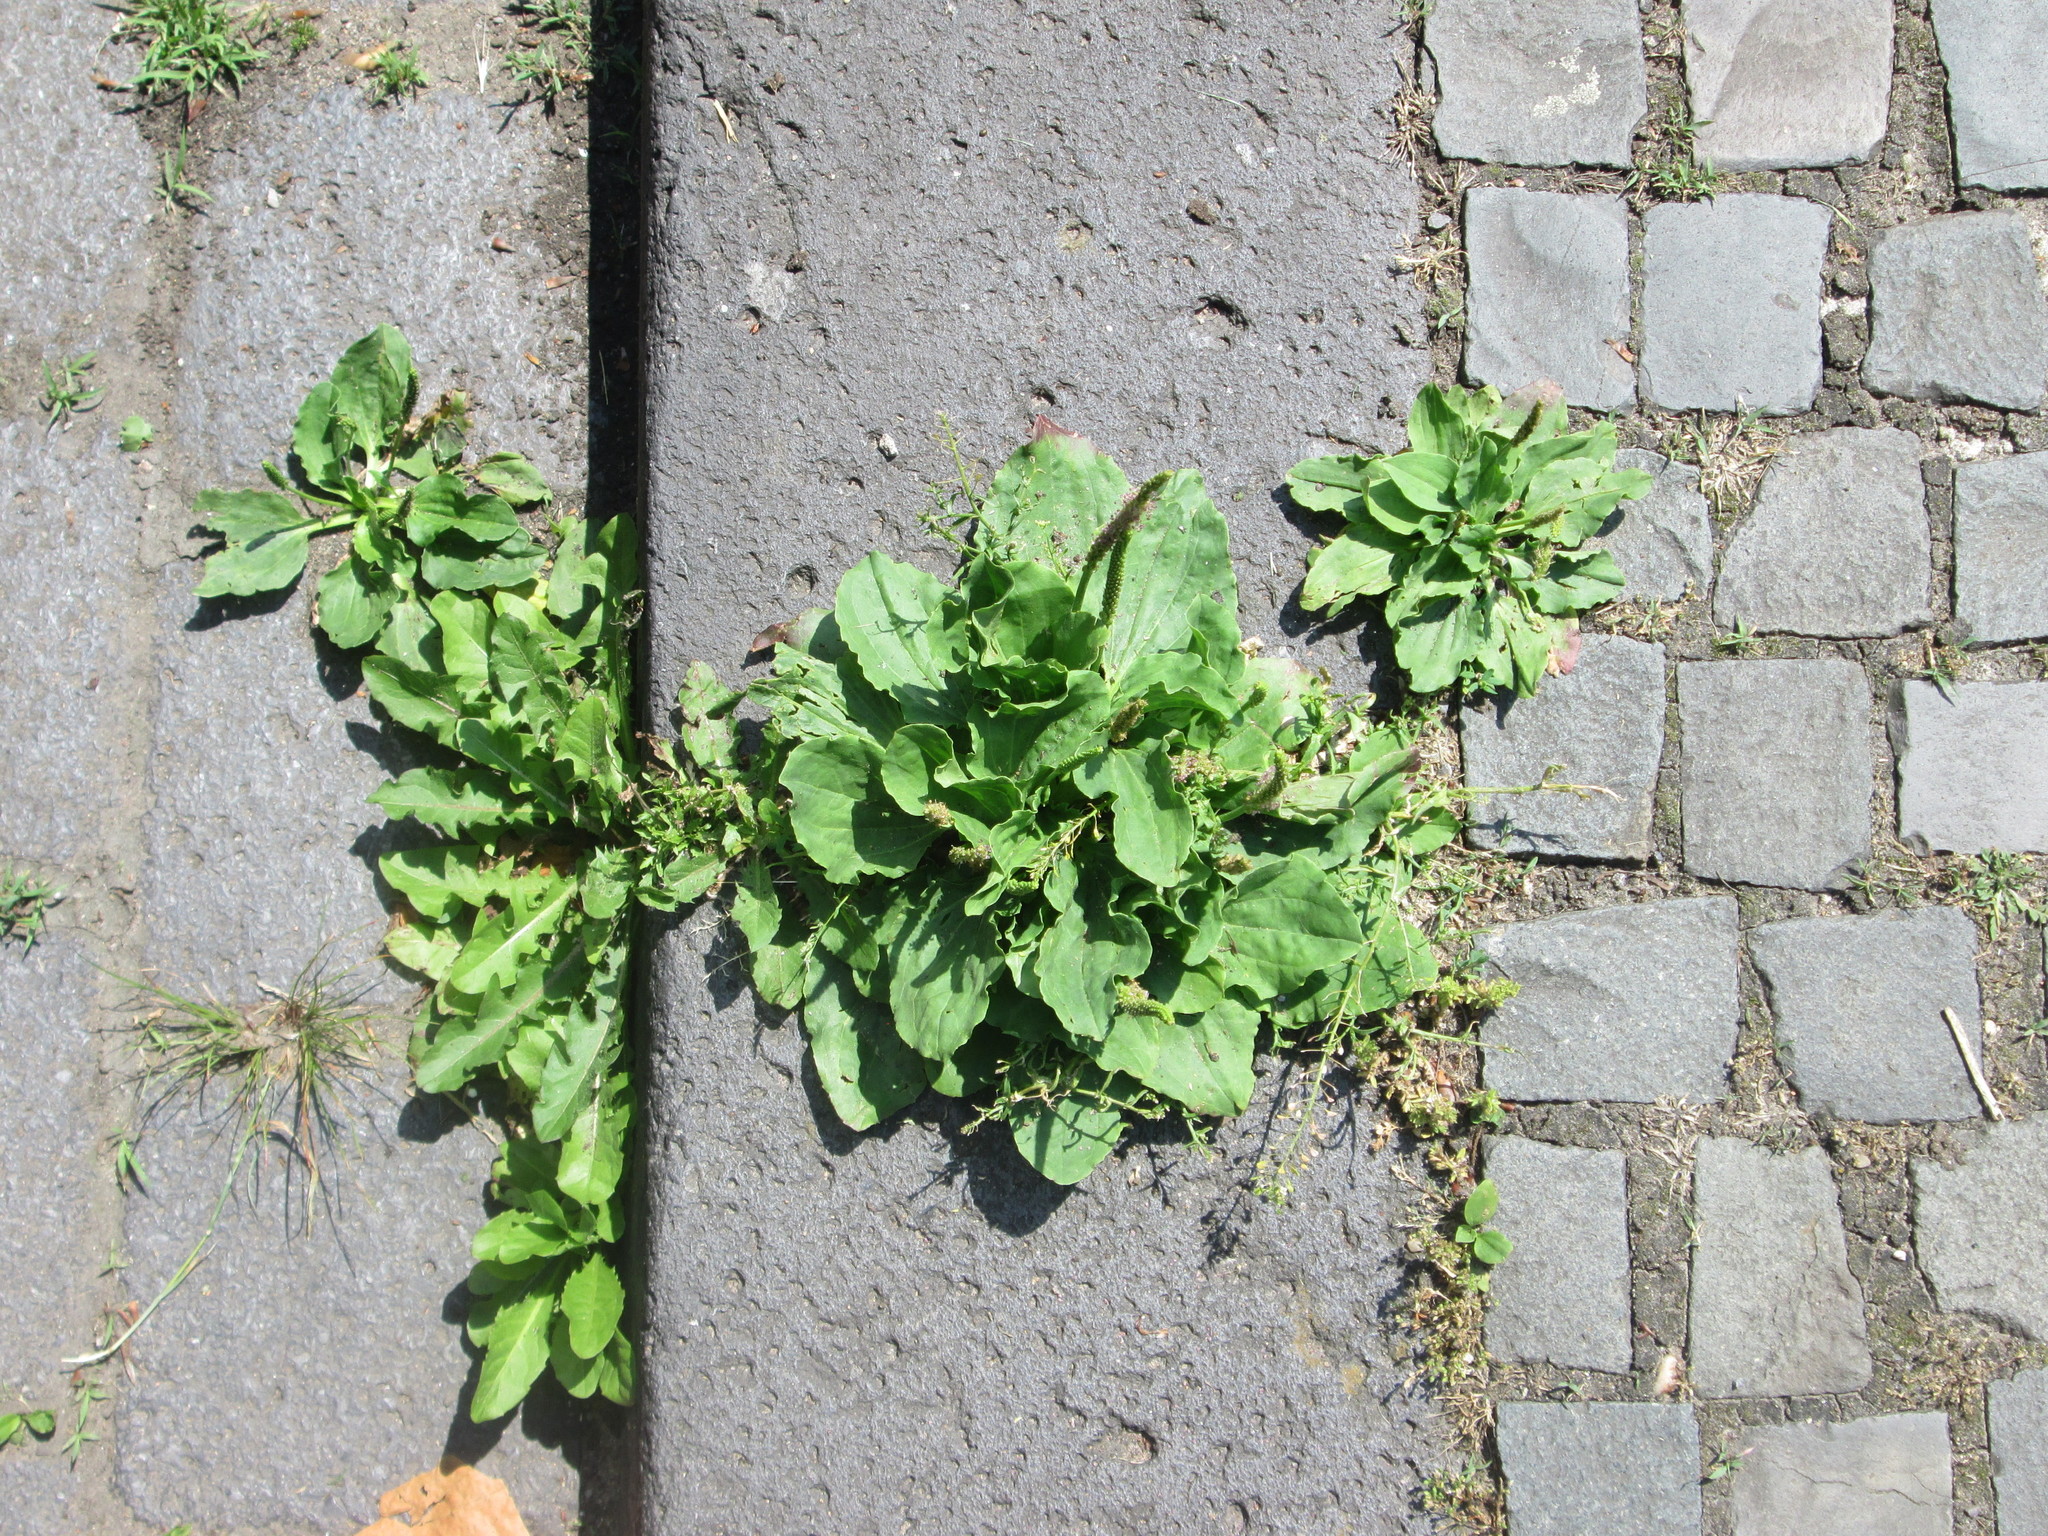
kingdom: Plantae
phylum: Tracheophyta
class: Magnoliopsida
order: Lamiales
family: Plantaginaceae
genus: Plantago
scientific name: Plantago major
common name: Common plantain
